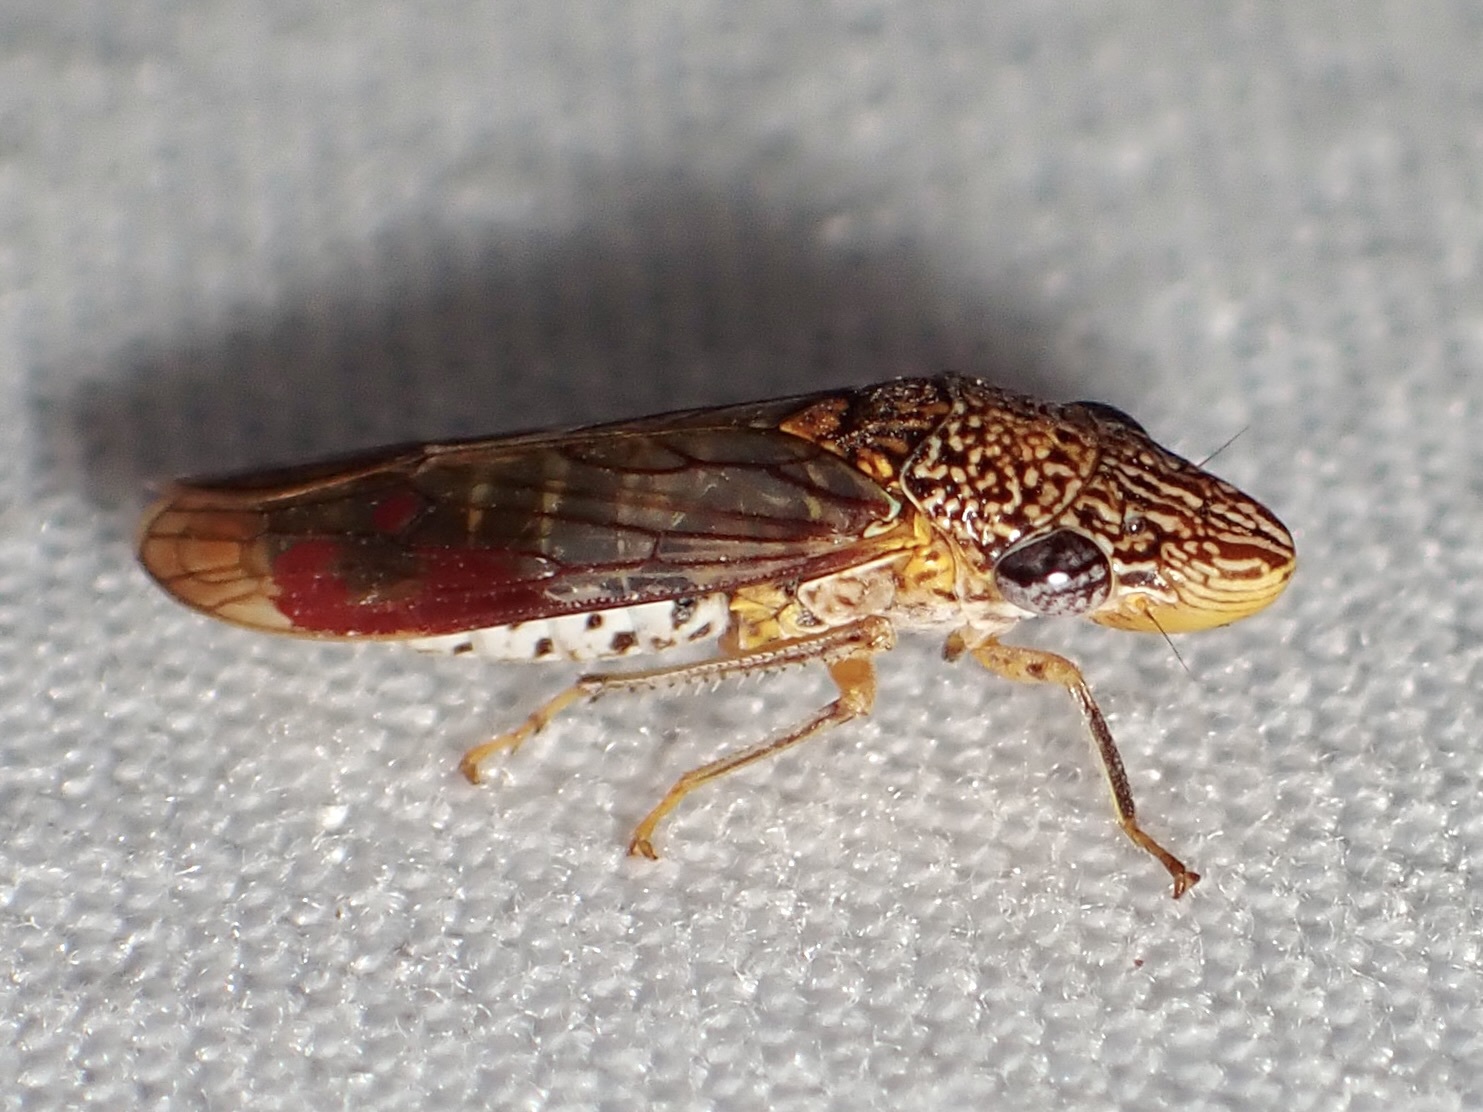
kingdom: Animalia
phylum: Arthropoda
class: Insecta
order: Hemiptera
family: Cicadellidae
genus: Homalodisca
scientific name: Homalodisca liturata
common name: Lacertate sharpshooter
